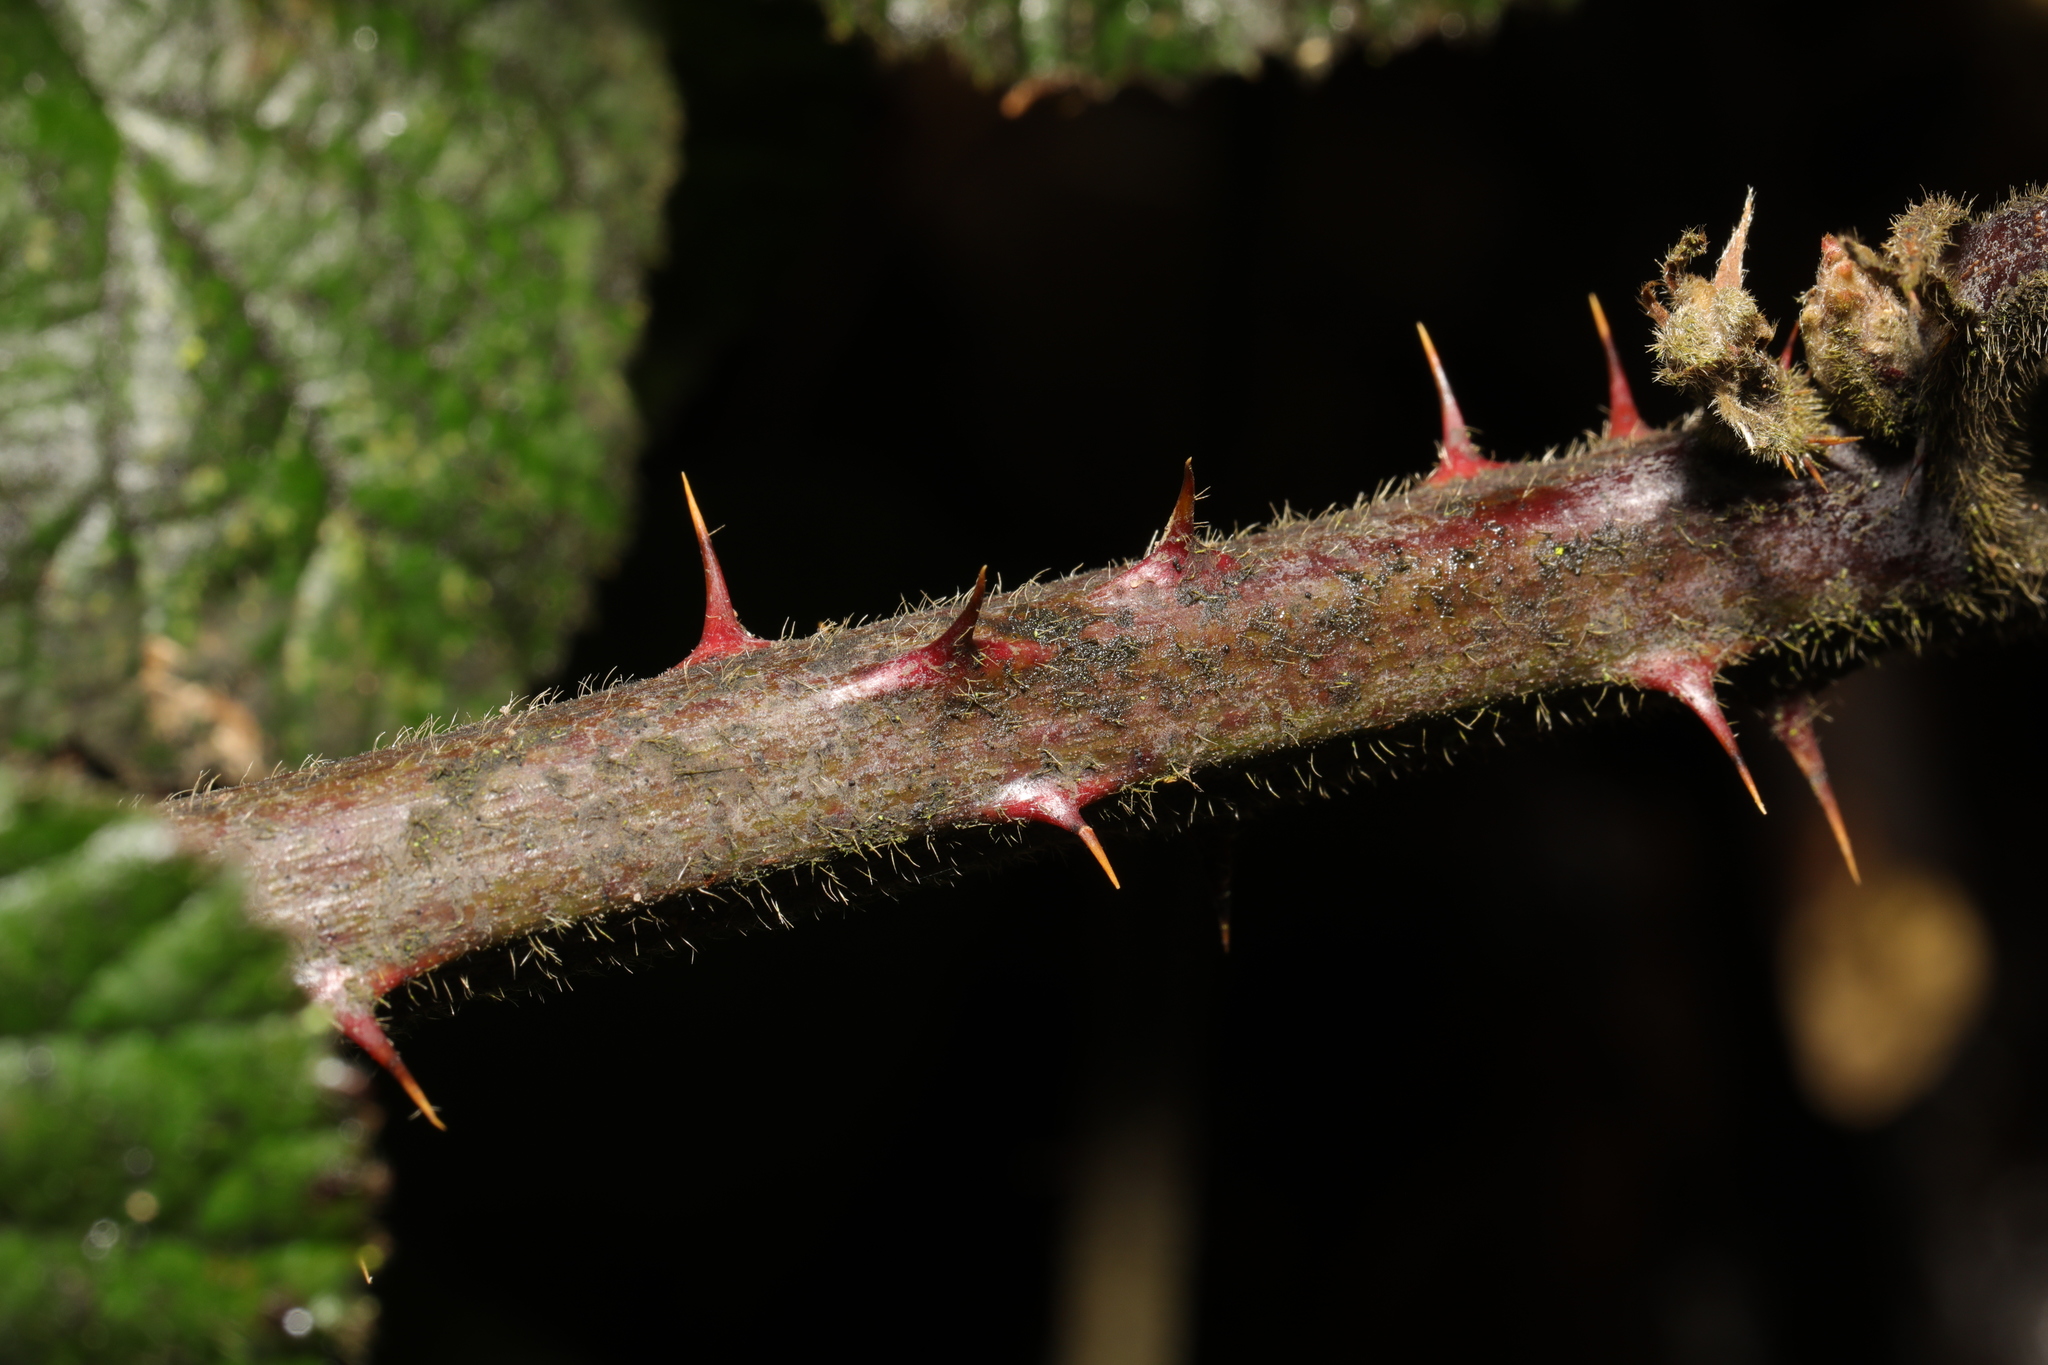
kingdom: Plantae
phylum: Tracheophyta
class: Magnoliopsida
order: Rosales
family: Rosaceae
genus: Rubus
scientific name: Rubus vestitus
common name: European blackberry
